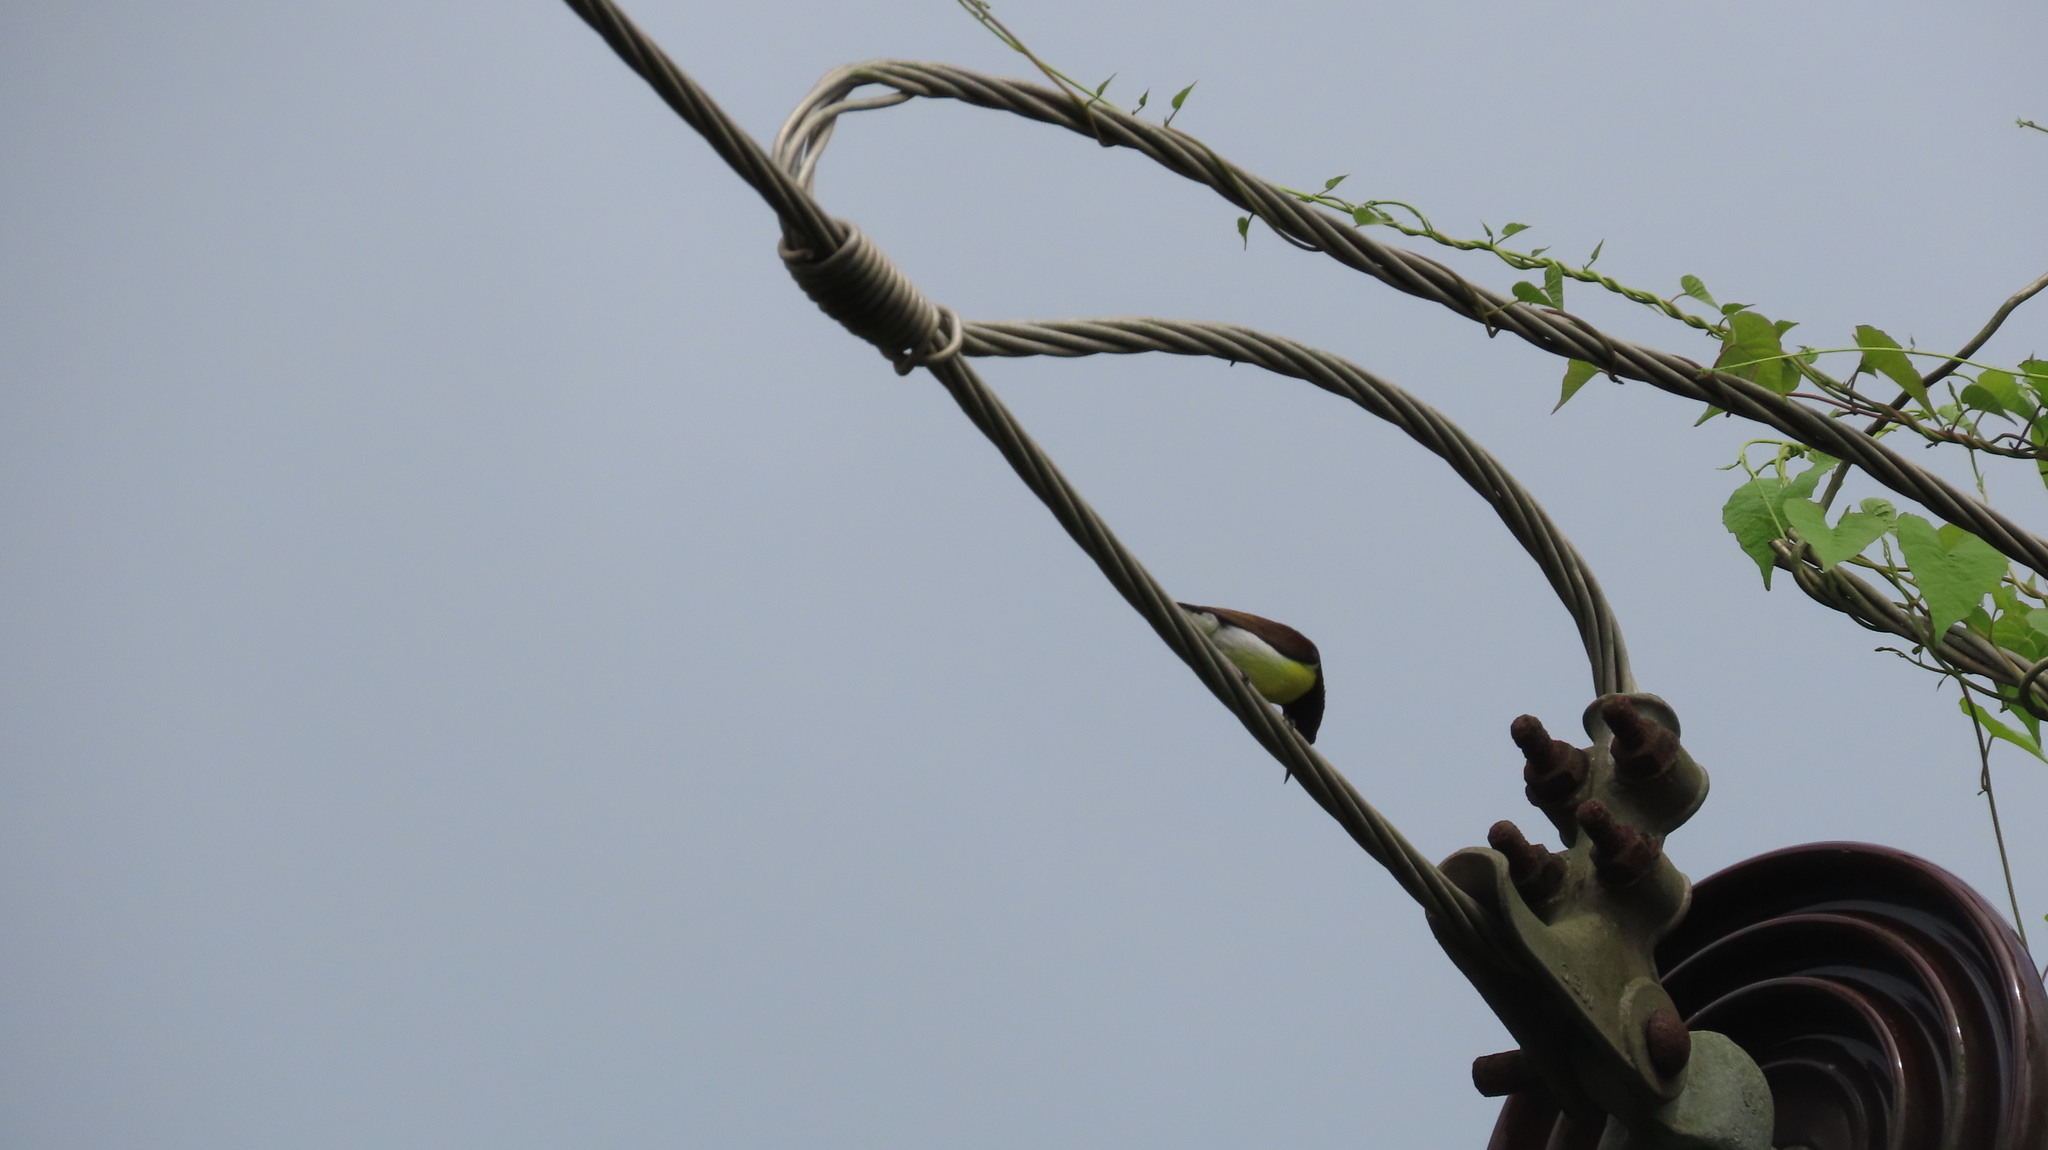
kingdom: Animalia
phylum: Chordata
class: Aves
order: Passeriformes
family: Nectariniidae
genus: Leptocoma
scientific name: Leptocoma zeylonica
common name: Purple-rumped sunbird
